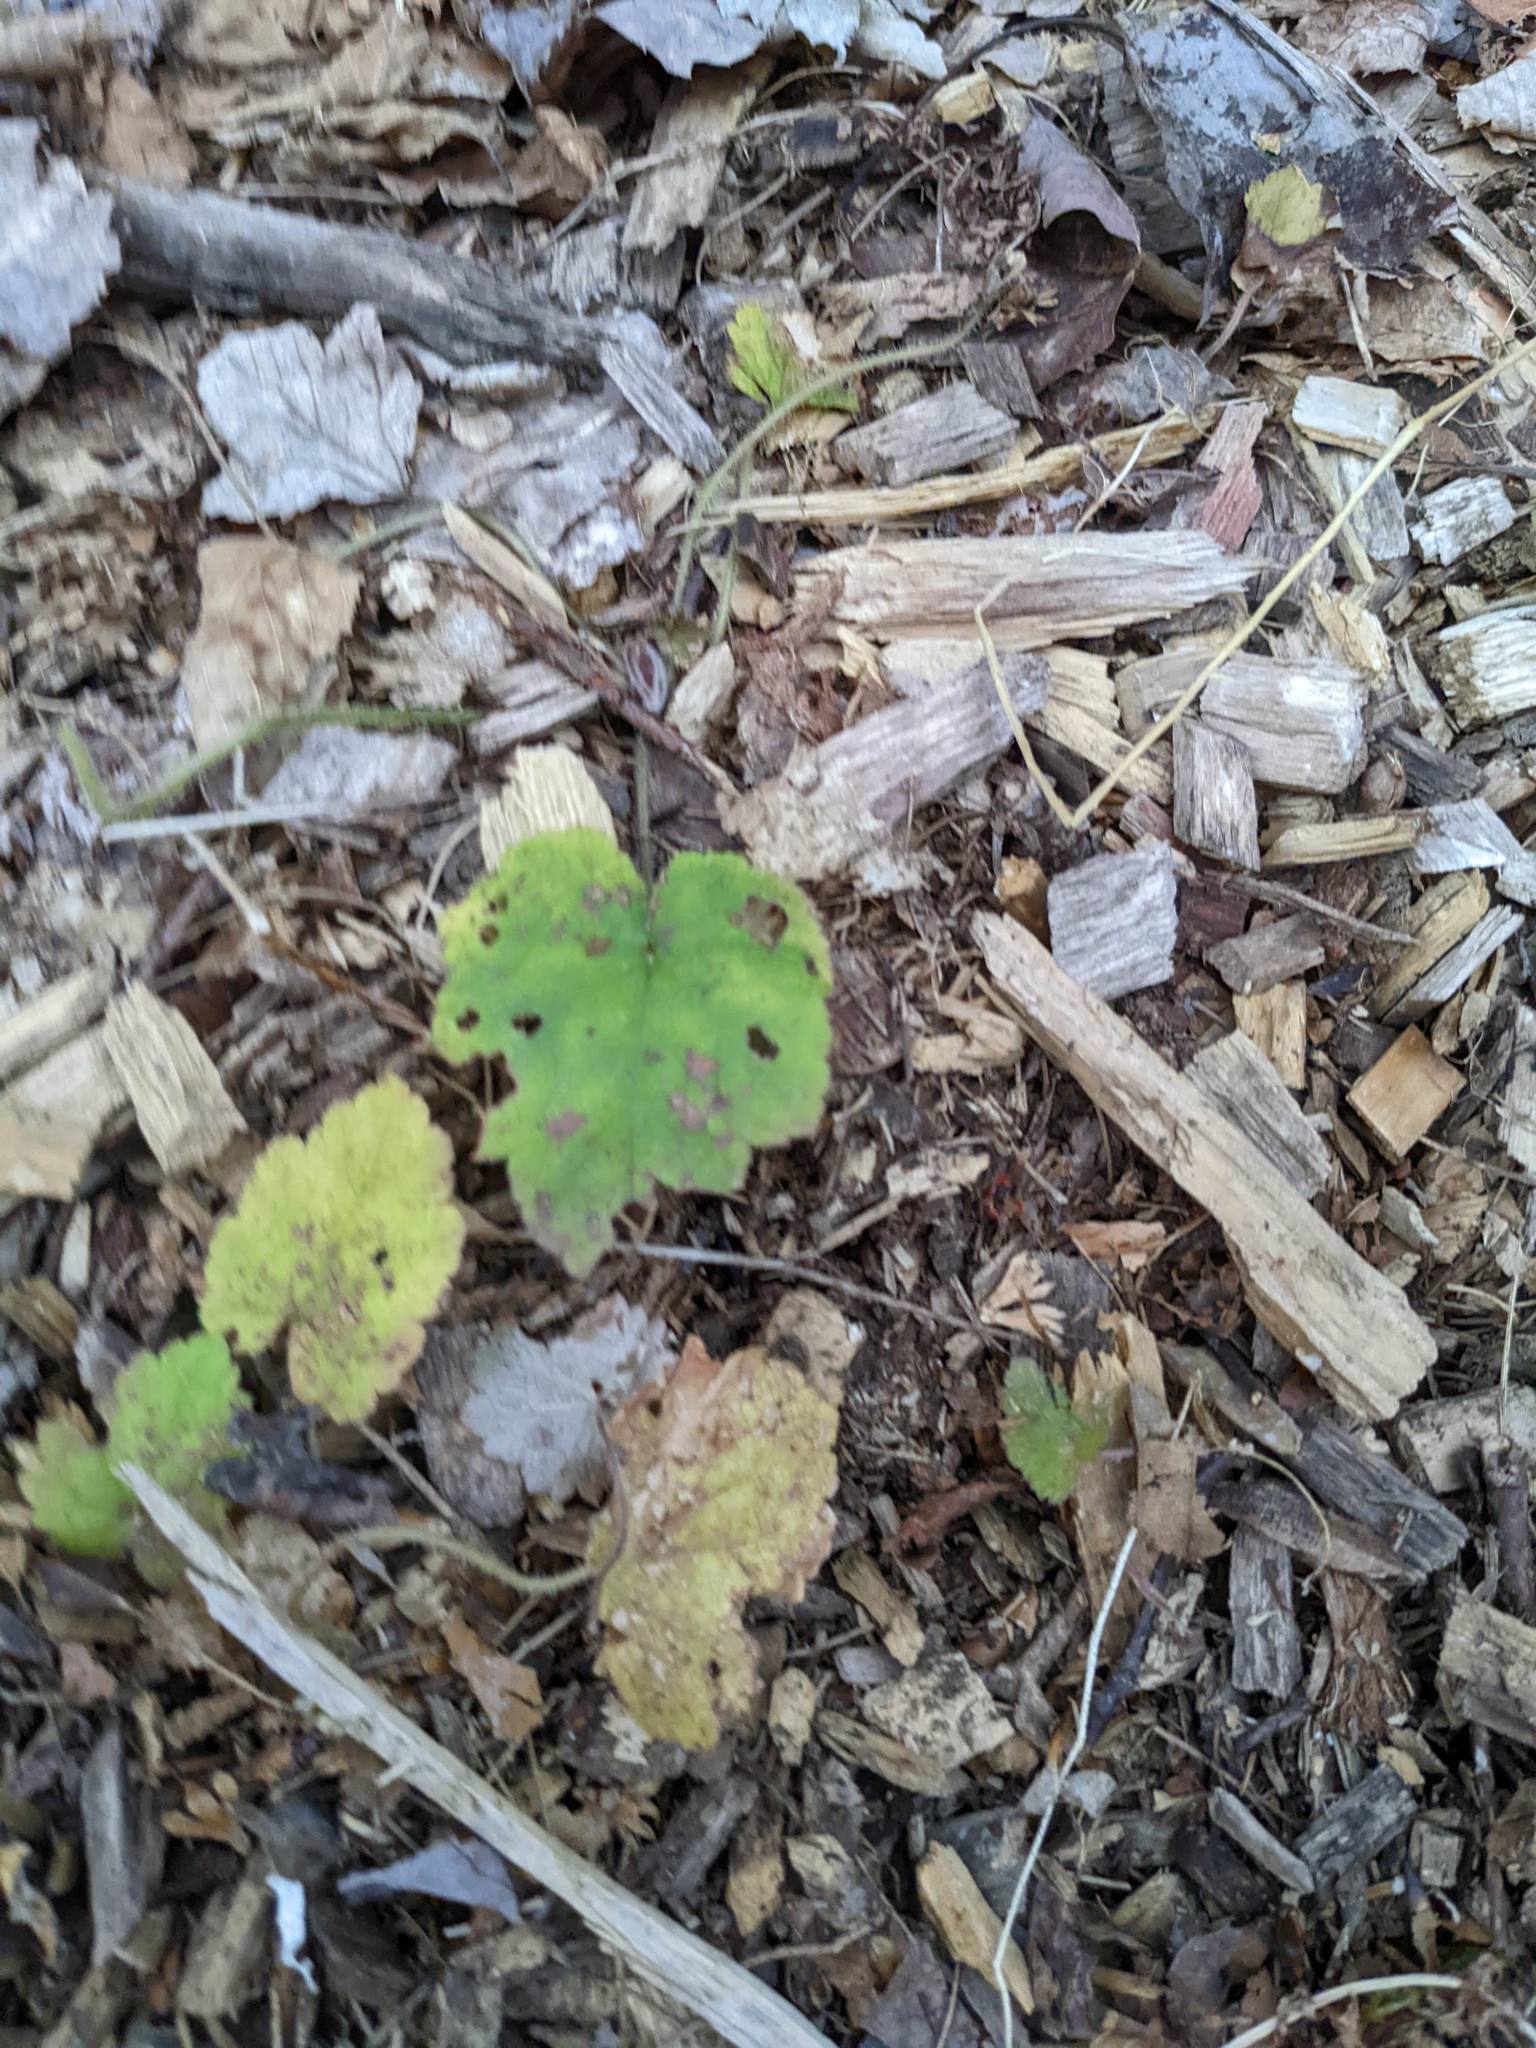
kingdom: Plantae
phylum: Tracheophyta
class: Magnoliopsida
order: Saxifragales
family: Saxifragaceae
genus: Tiarella
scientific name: Tiarella stolonifera
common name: Stoloniferous foamflower
